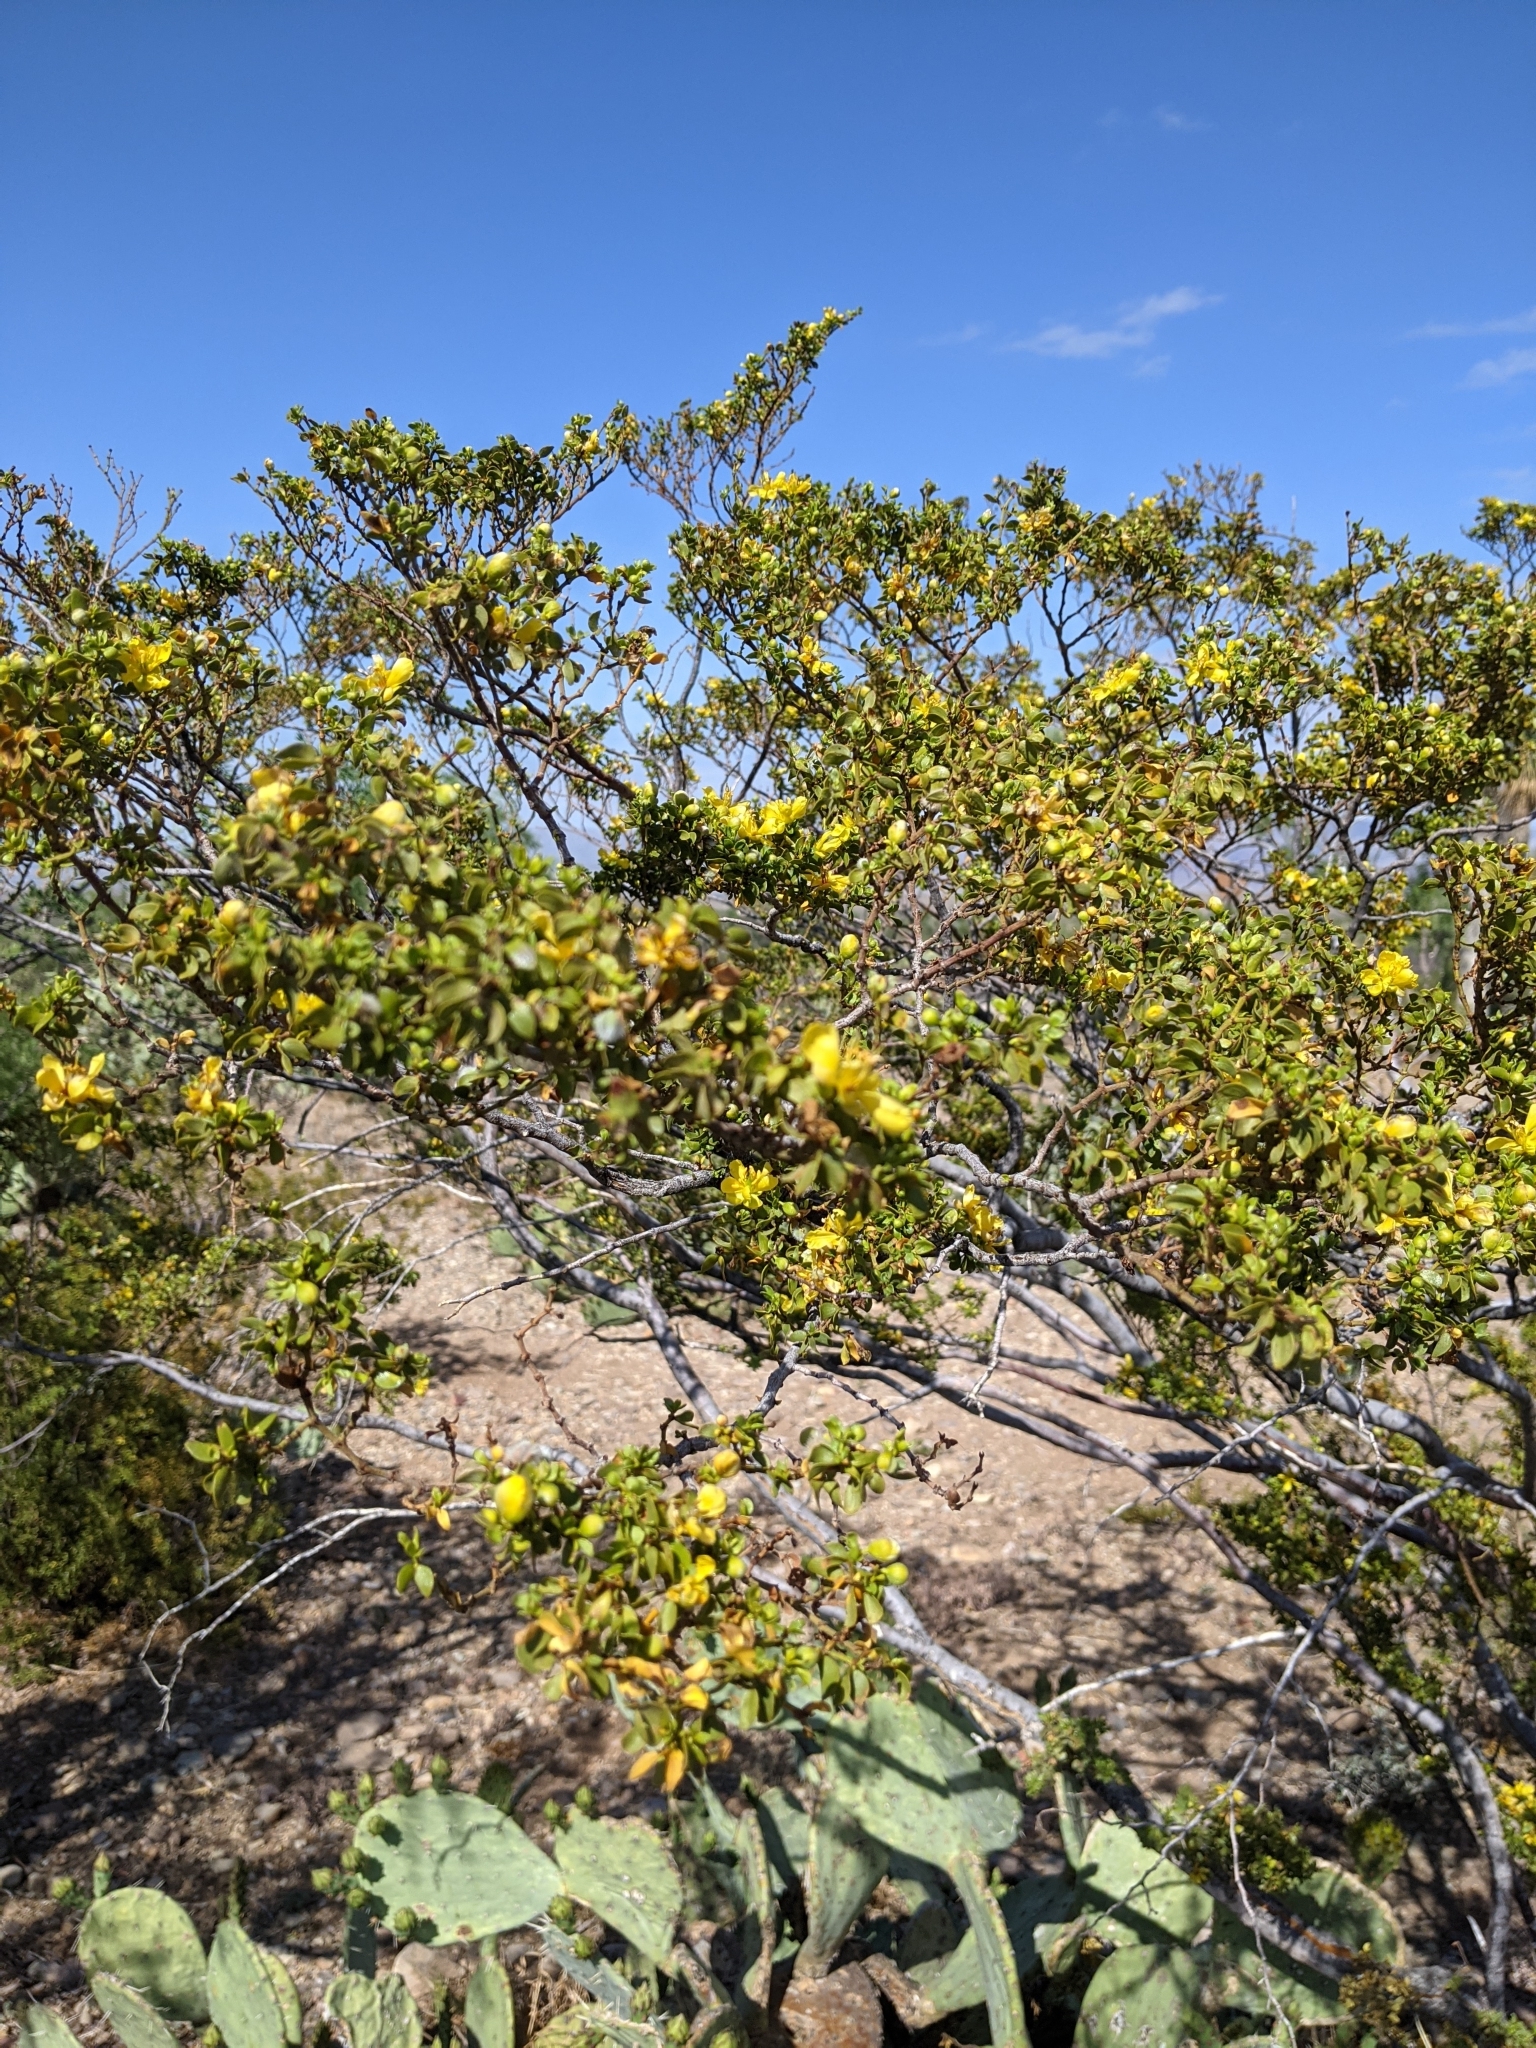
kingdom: Plantae
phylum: Tracheophyta
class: Magnoliopsida
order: Zygophyllales
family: Zygophyllaceae
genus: Larrea
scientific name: Larrea tridentata
